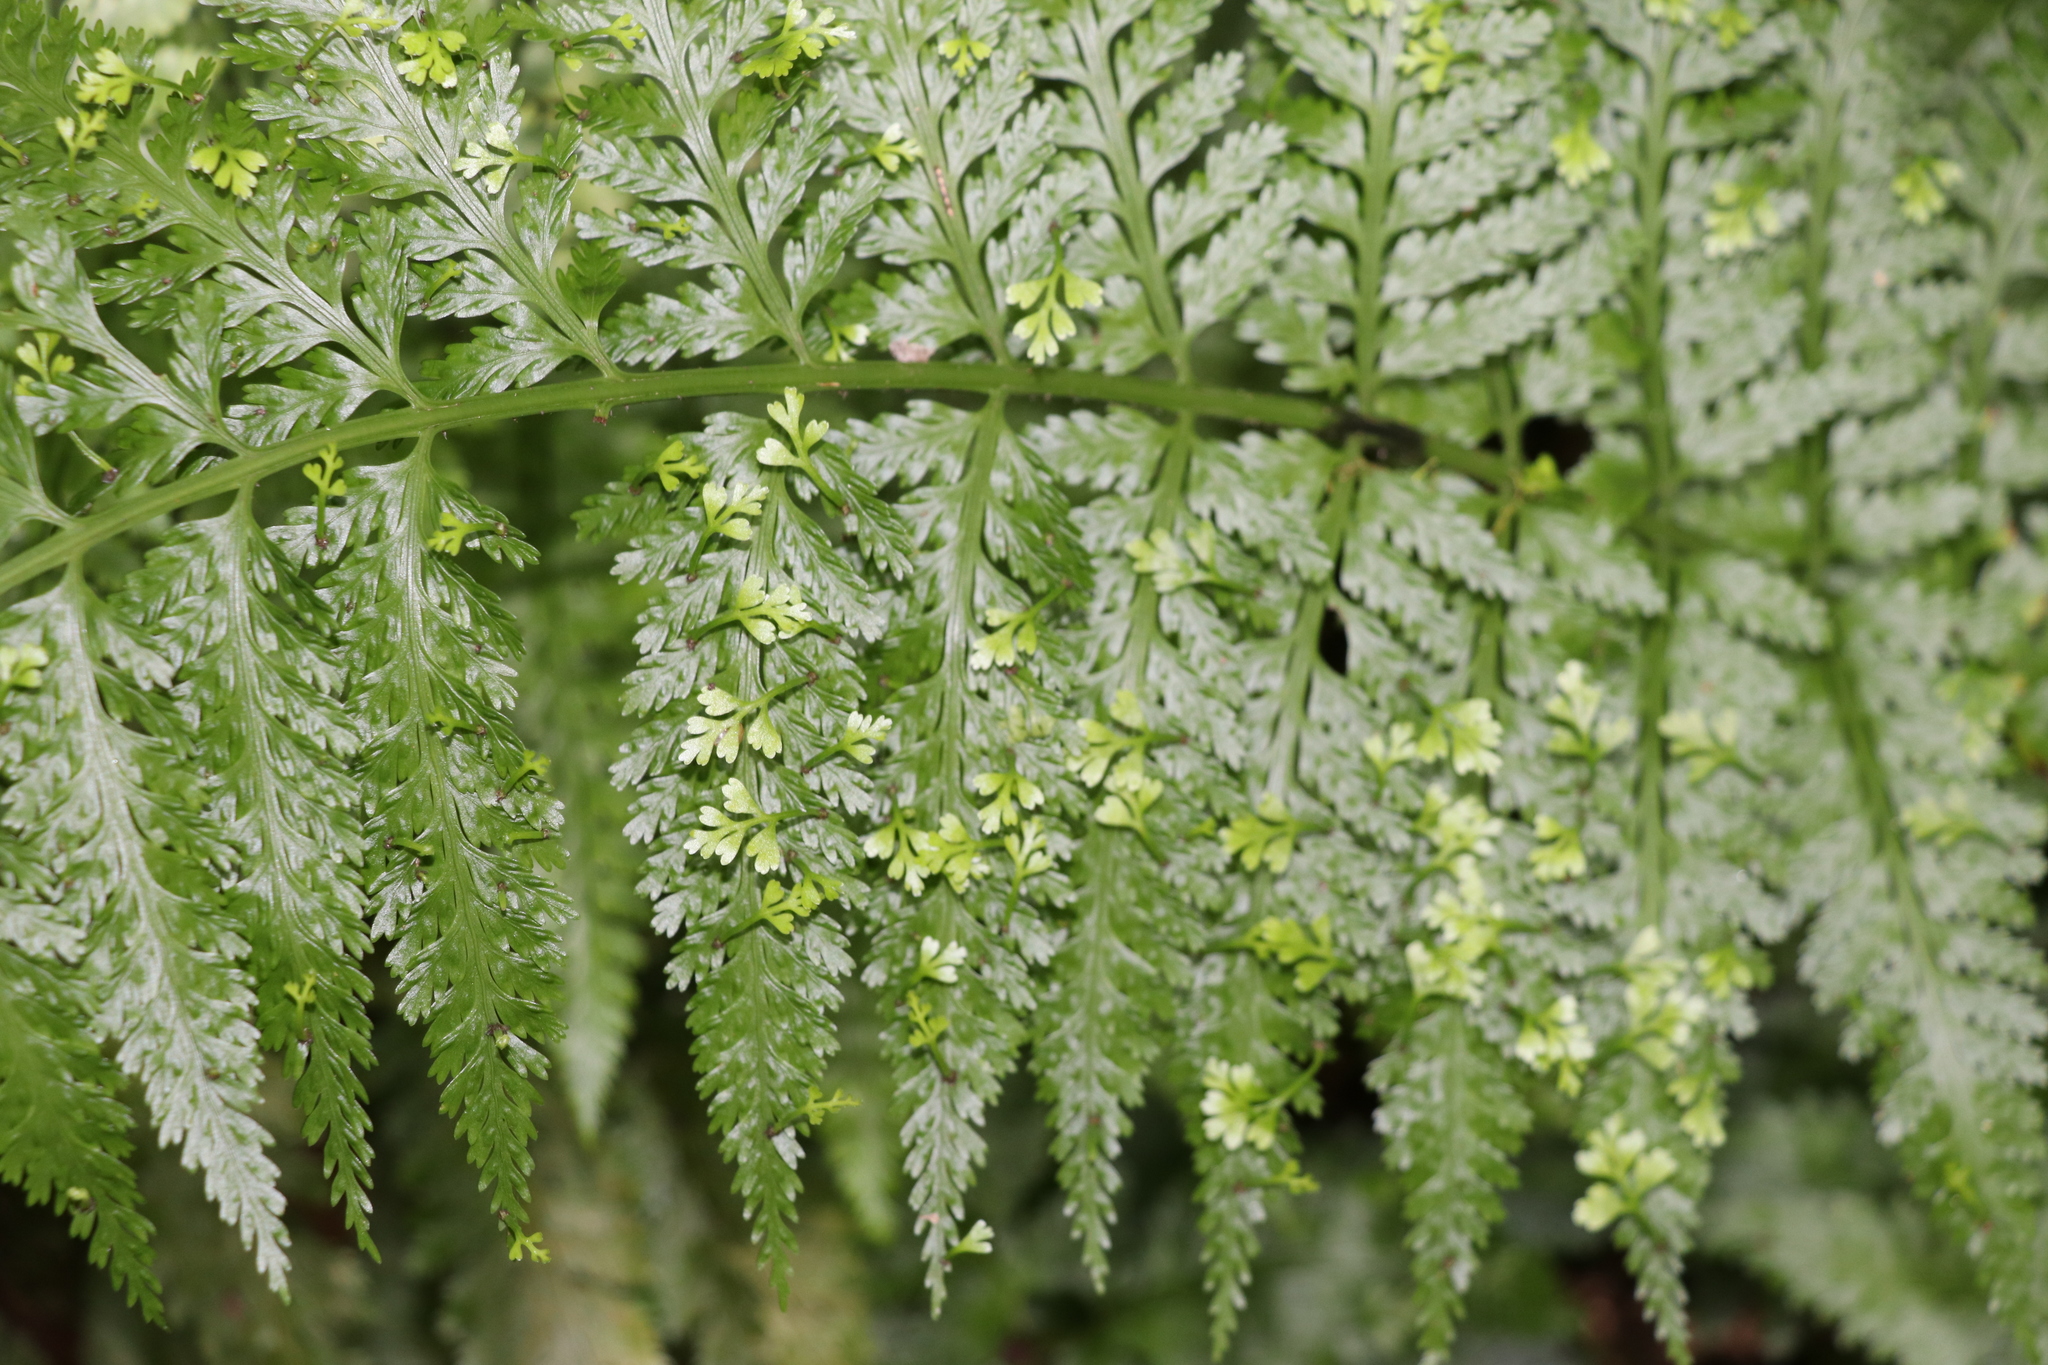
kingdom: Plantae
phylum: Tracheophyta
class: Polypodiopsida
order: Polypodiales
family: Aspleniaceae
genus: Asplenium
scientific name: Asplenium bulbiferum
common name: Mother fern
